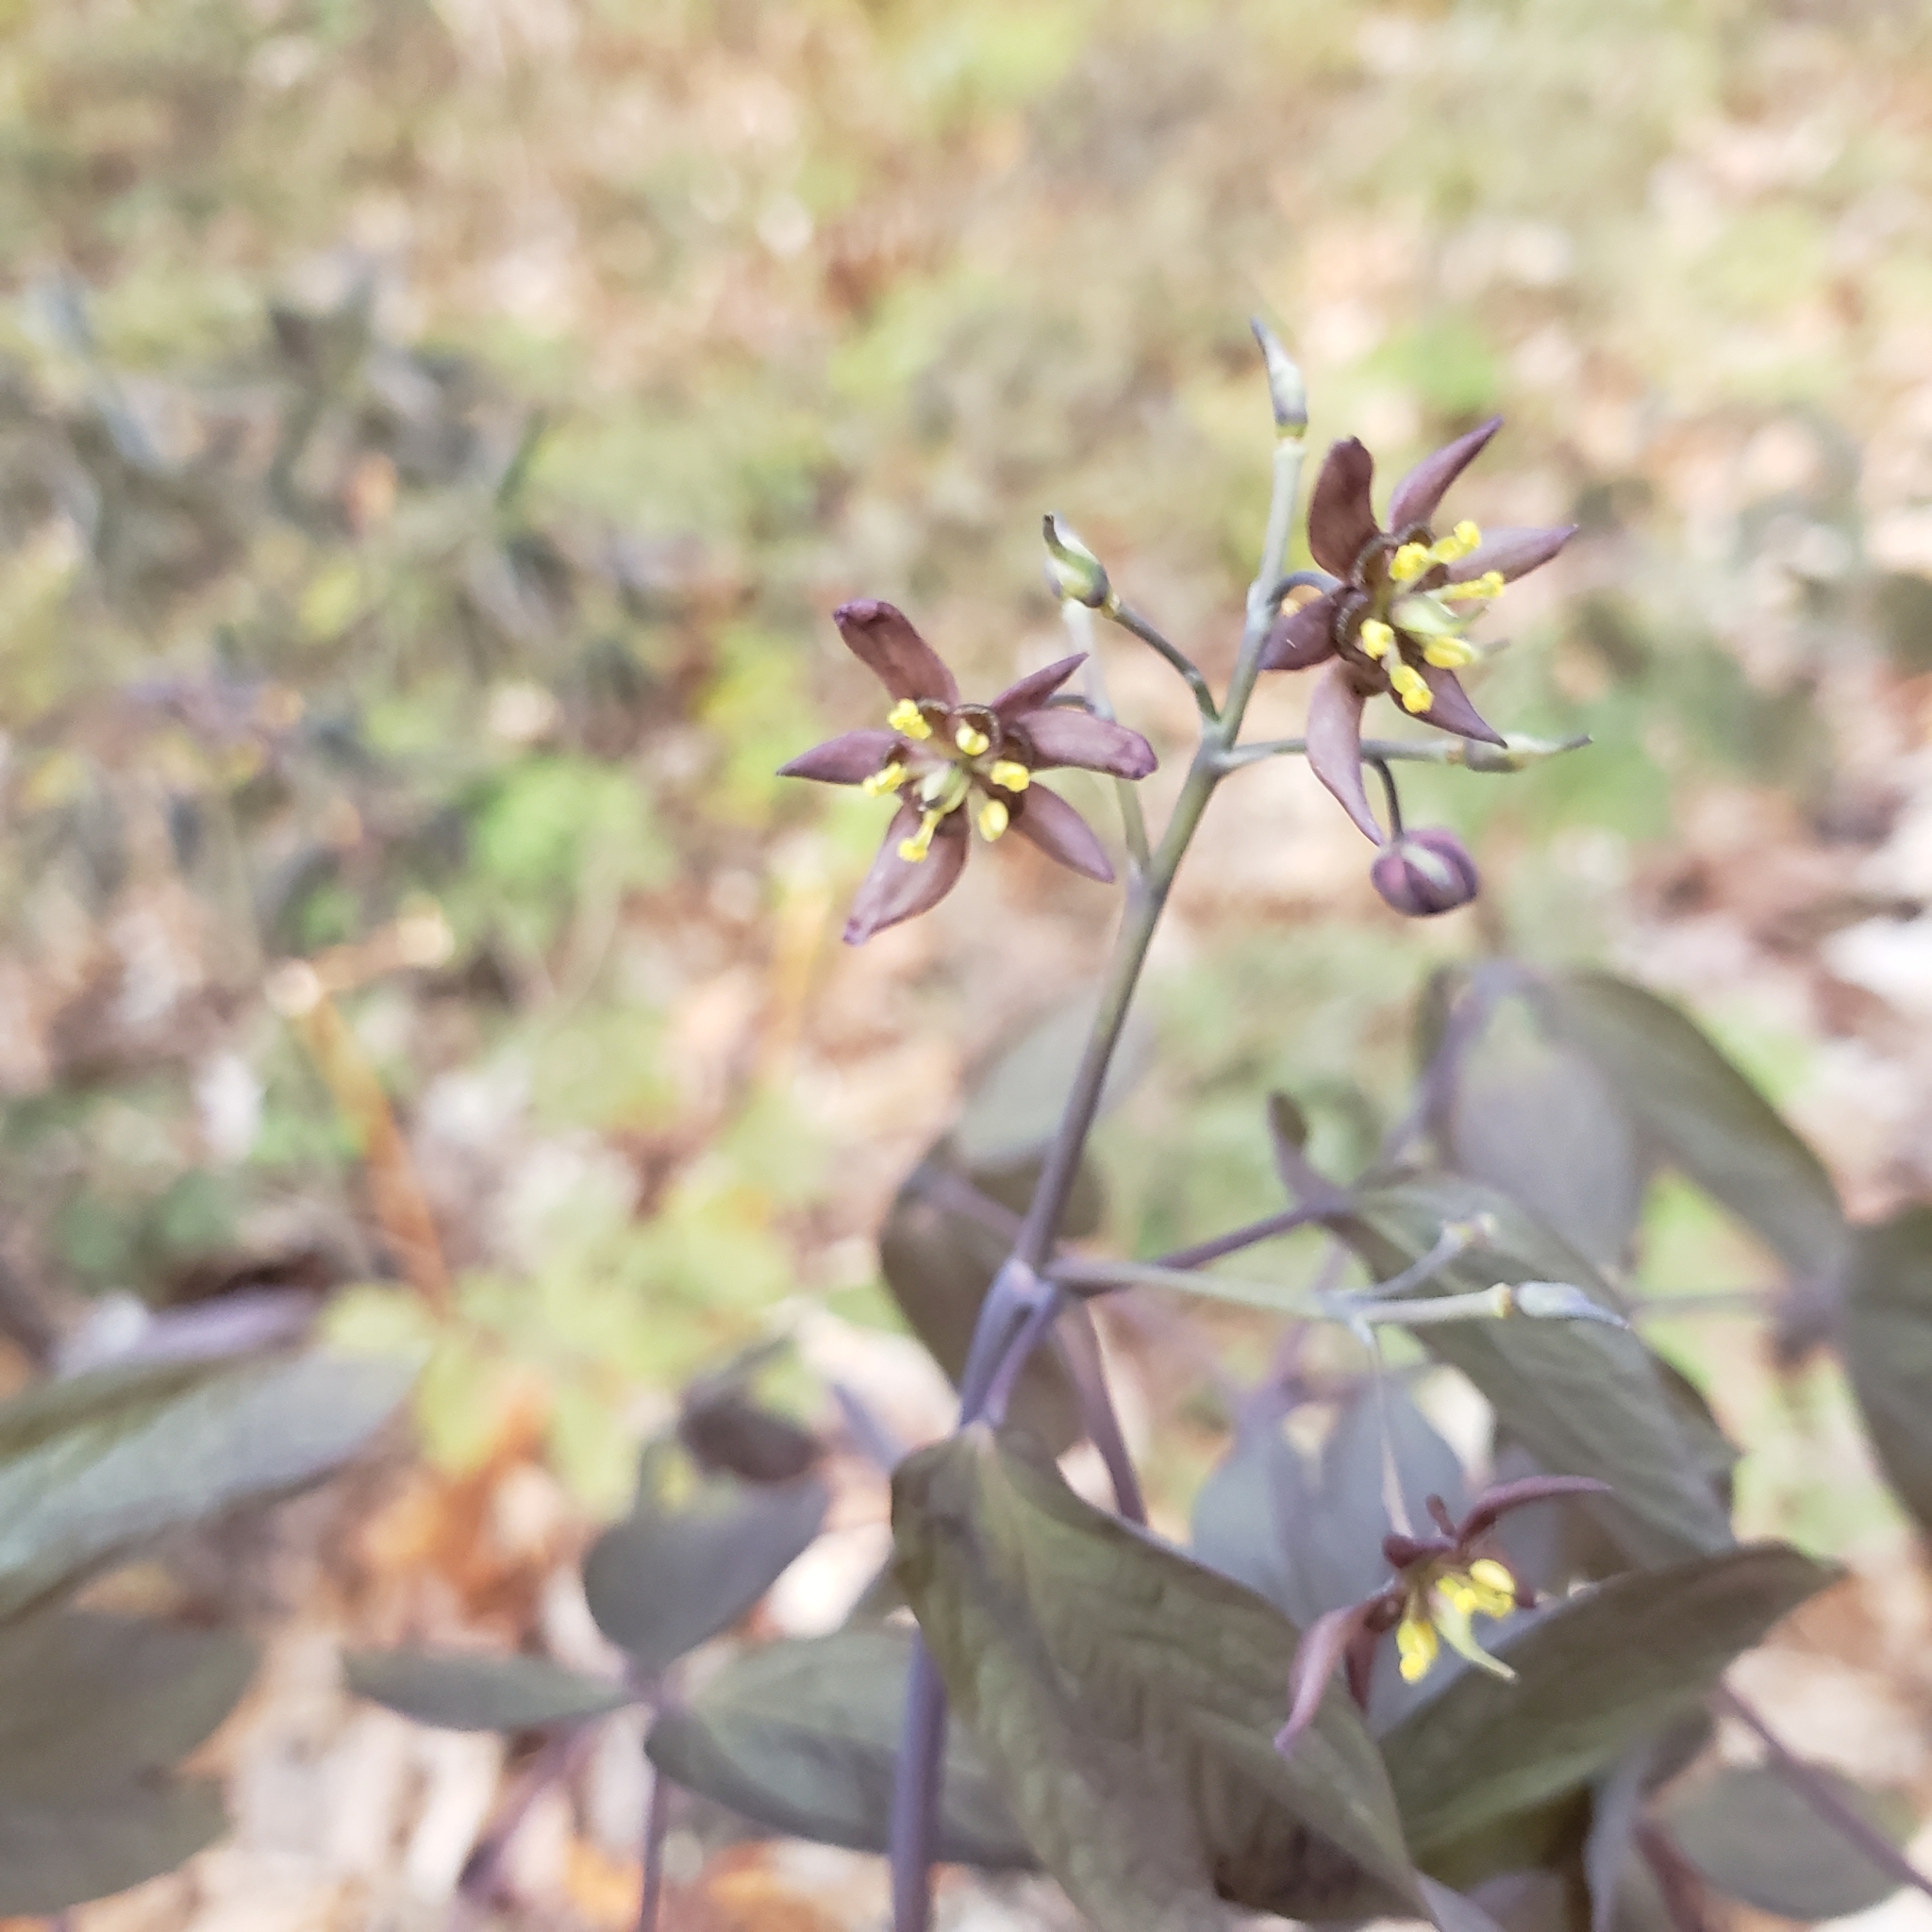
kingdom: Plantae
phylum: Tracheophyta
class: Magnoliopsida
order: Ranunculales
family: Berberidaceae
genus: Caulophyllum
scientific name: Caulophyllum giganteum
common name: Blue cohosh
